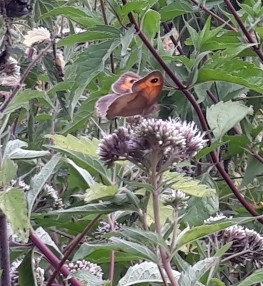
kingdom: Animalia
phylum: Arthropoda
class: Insecta
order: Lepidoptera
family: Nymphalidae
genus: Maniola
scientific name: Maniola jurtina
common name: Meadow brown
